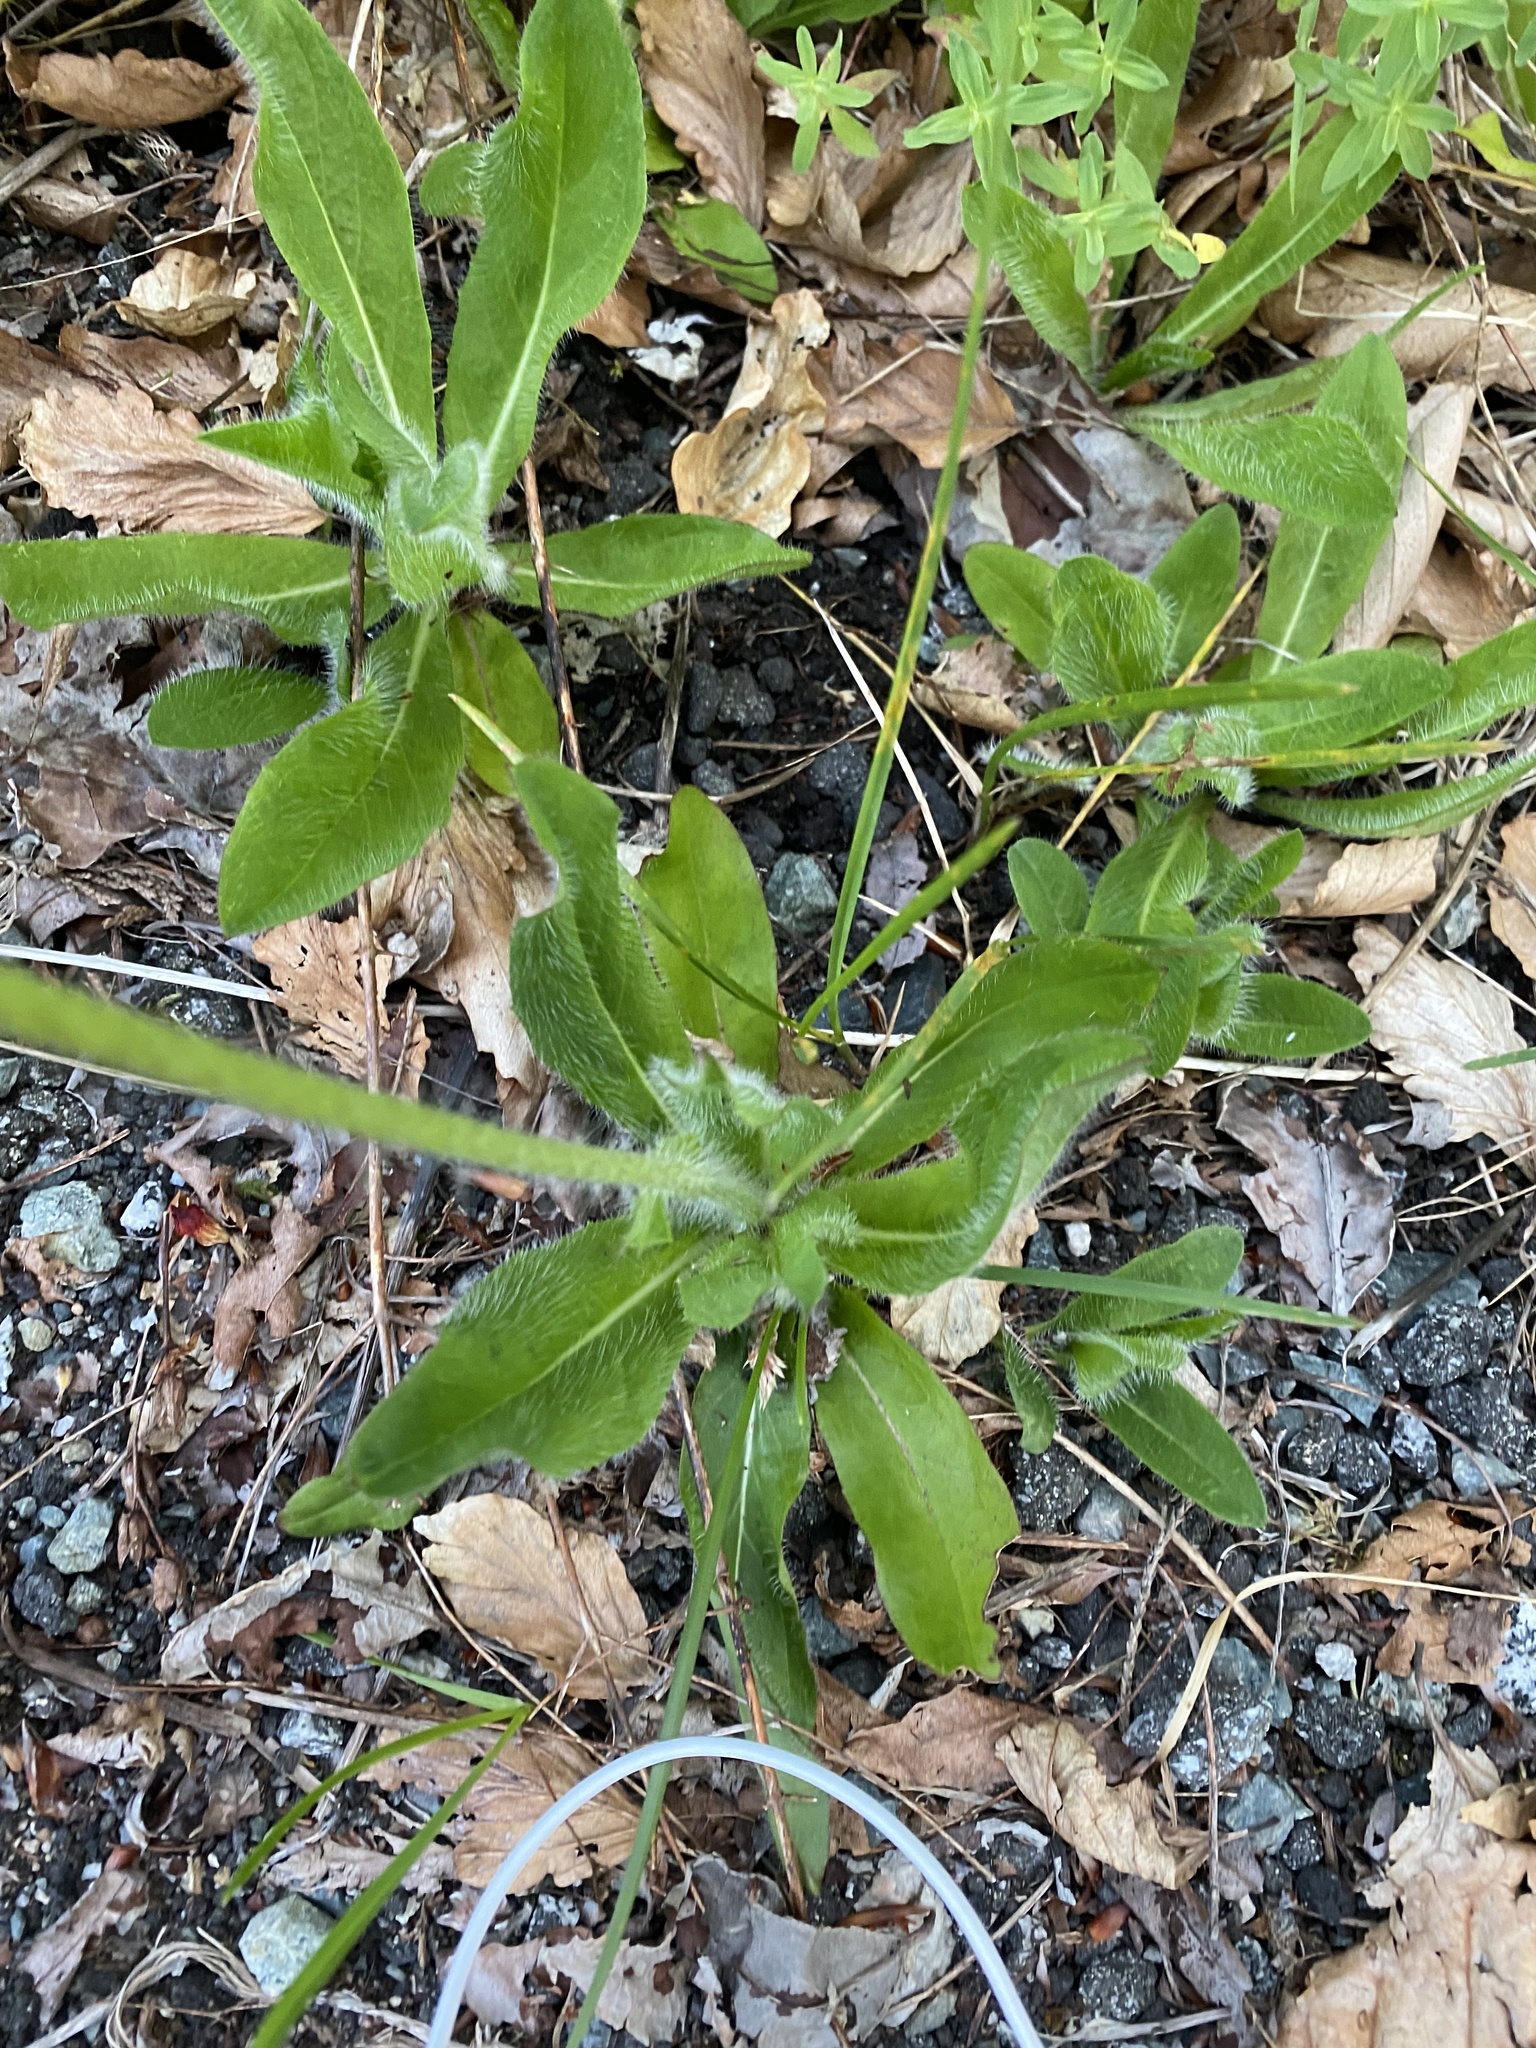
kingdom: Plantae
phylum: Tracheophyta
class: Magnoliopsida
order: Asterales
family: Asteraceae
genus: Pilosella
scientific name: Pilosella aurantiaca
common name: Fox-and-cubs
